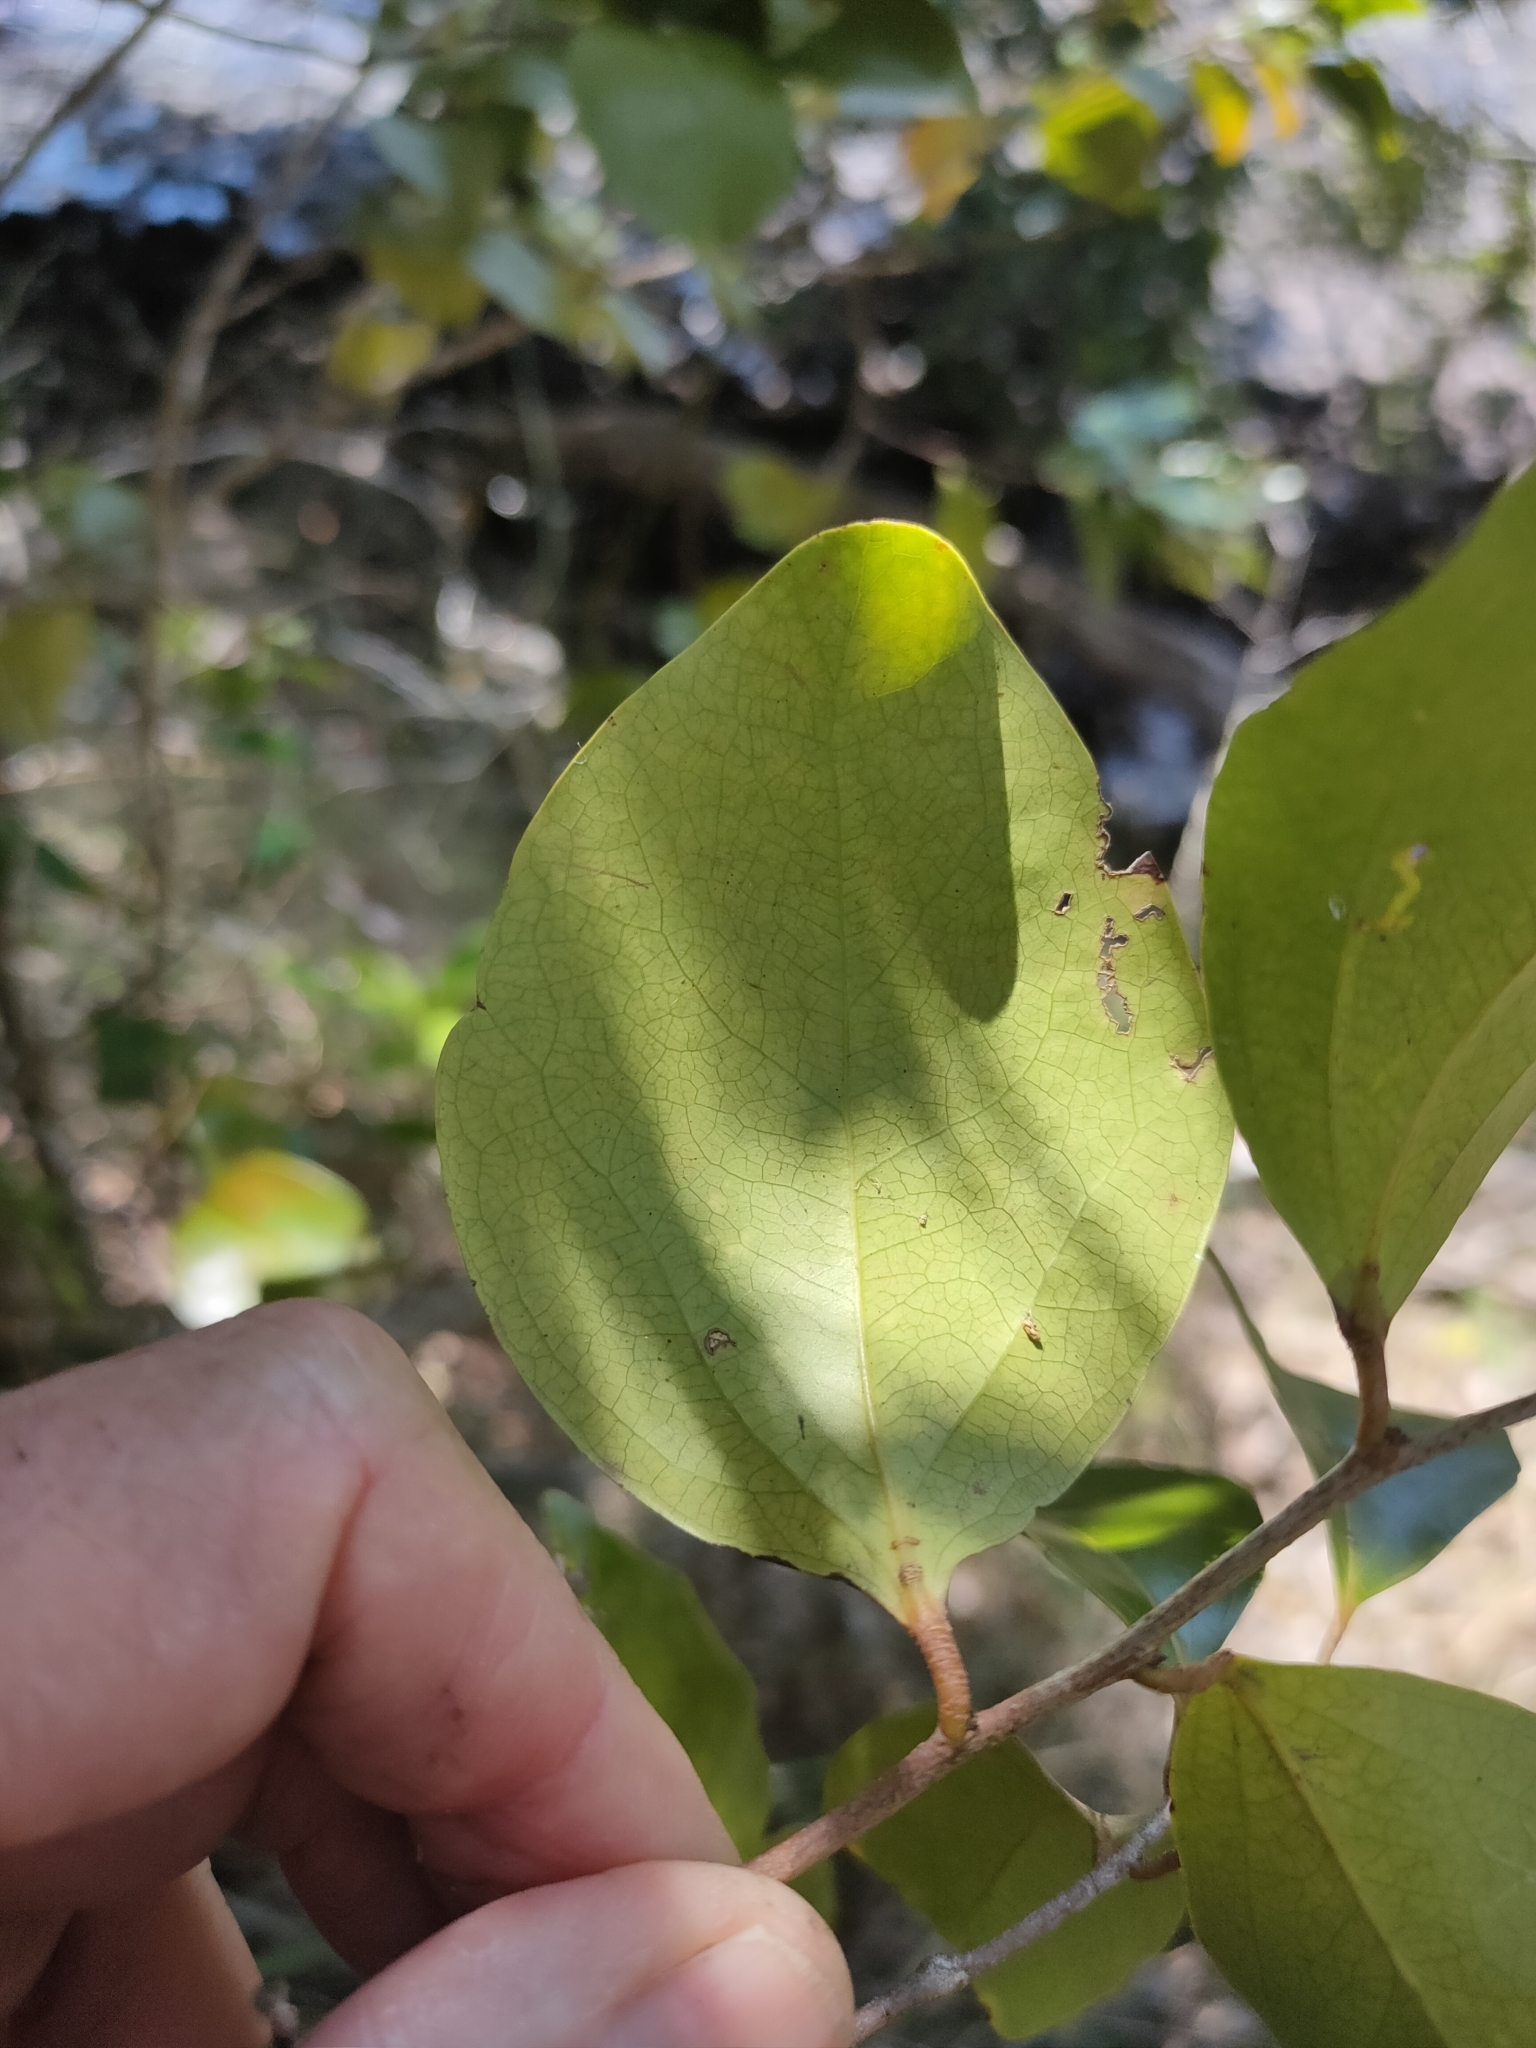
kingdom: Plantae
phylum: Tracheophyta
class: Magnoliopsida
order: Malpighiales
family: Salicaceae
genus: Scolopia
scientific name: Scolopia braunii
